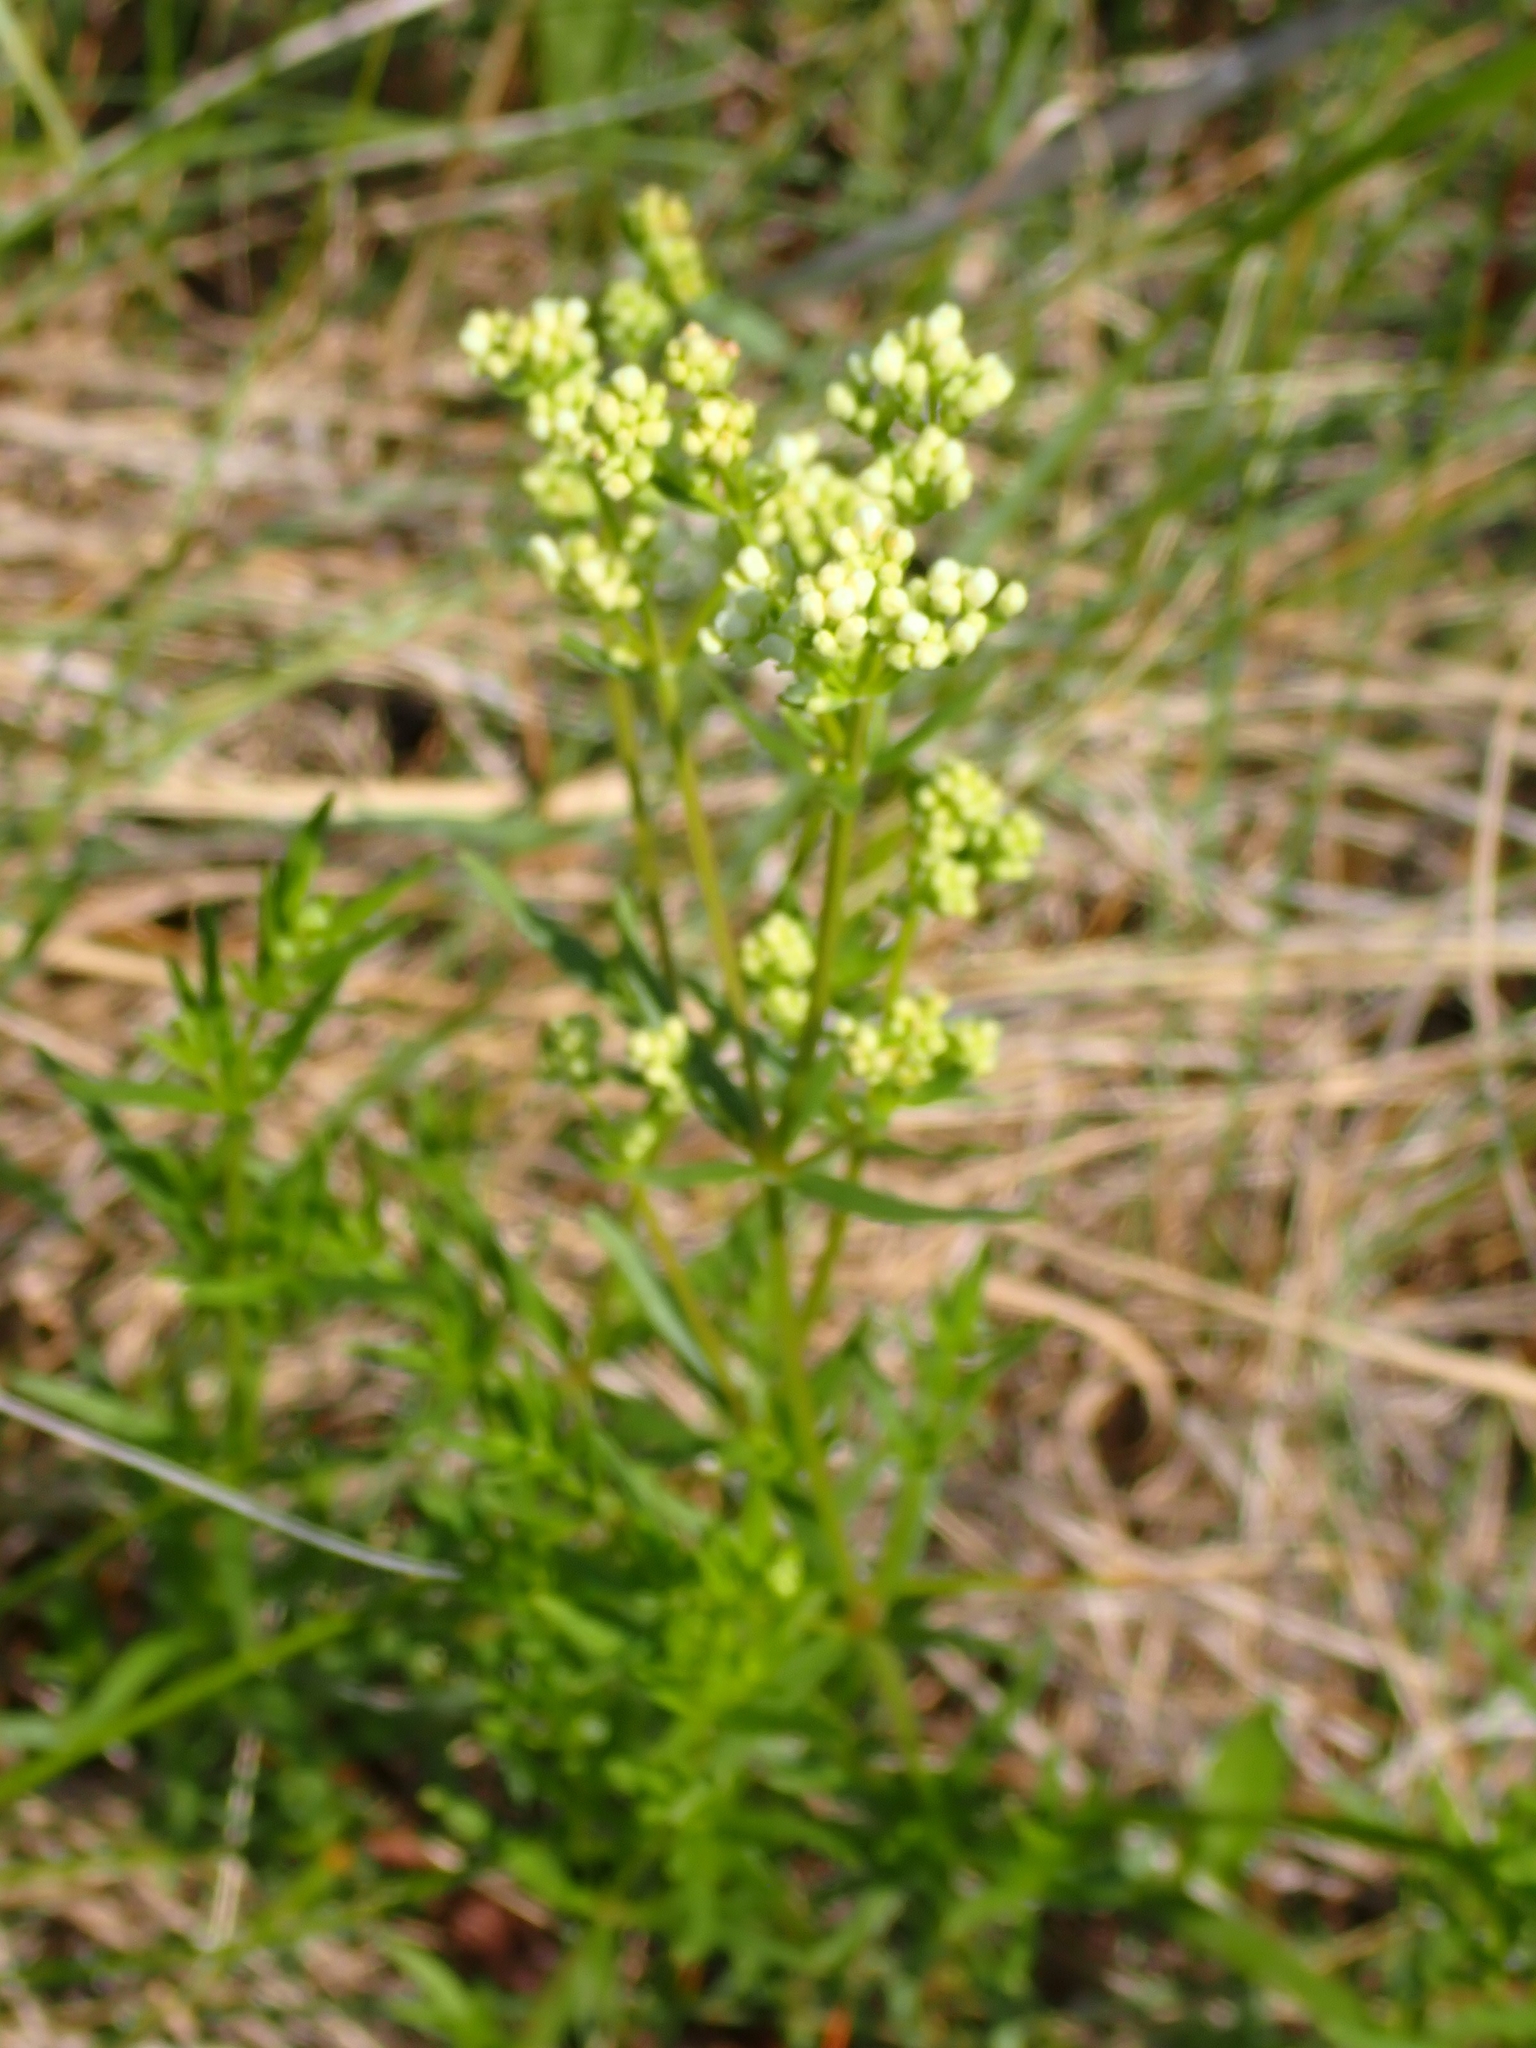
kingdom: Plantae
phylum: Tracheophyta
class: Magnoliopsida
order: Gentianales
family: Rubiaceae
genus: Galium
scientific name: Galium boreale
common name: Northern bedstraw
